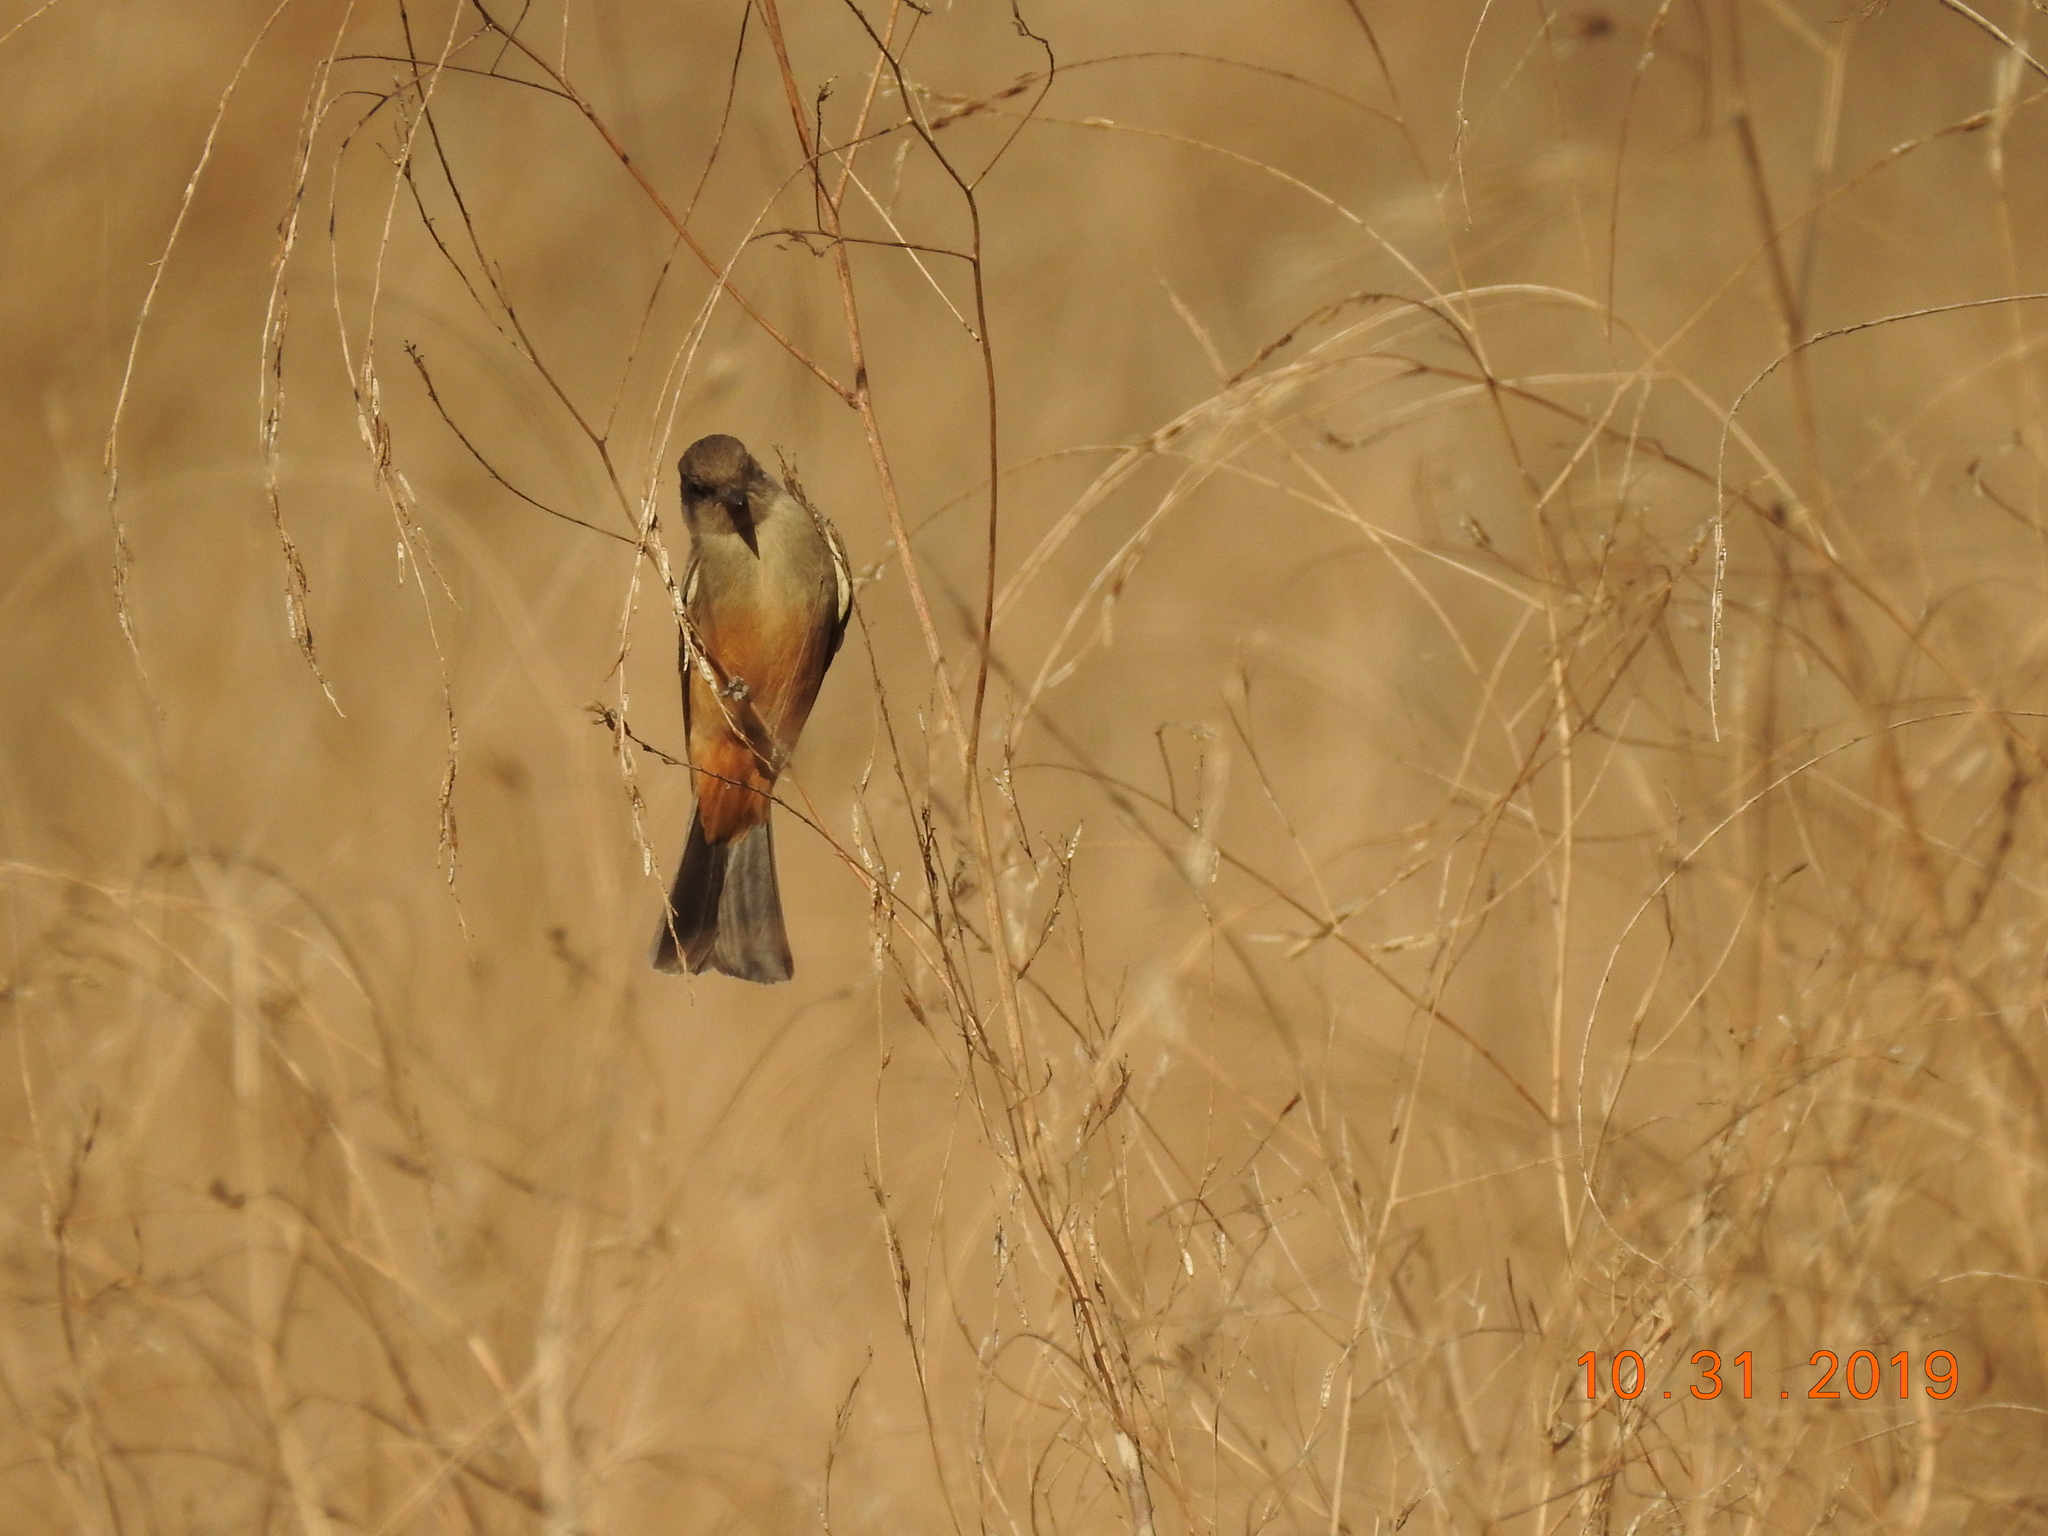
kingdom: Animalia
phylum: Chordata
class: Aves
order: Passeriformes
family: Tyrannidae
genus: Sayornis
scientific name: Sayornis saya
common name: Say's phoebe
